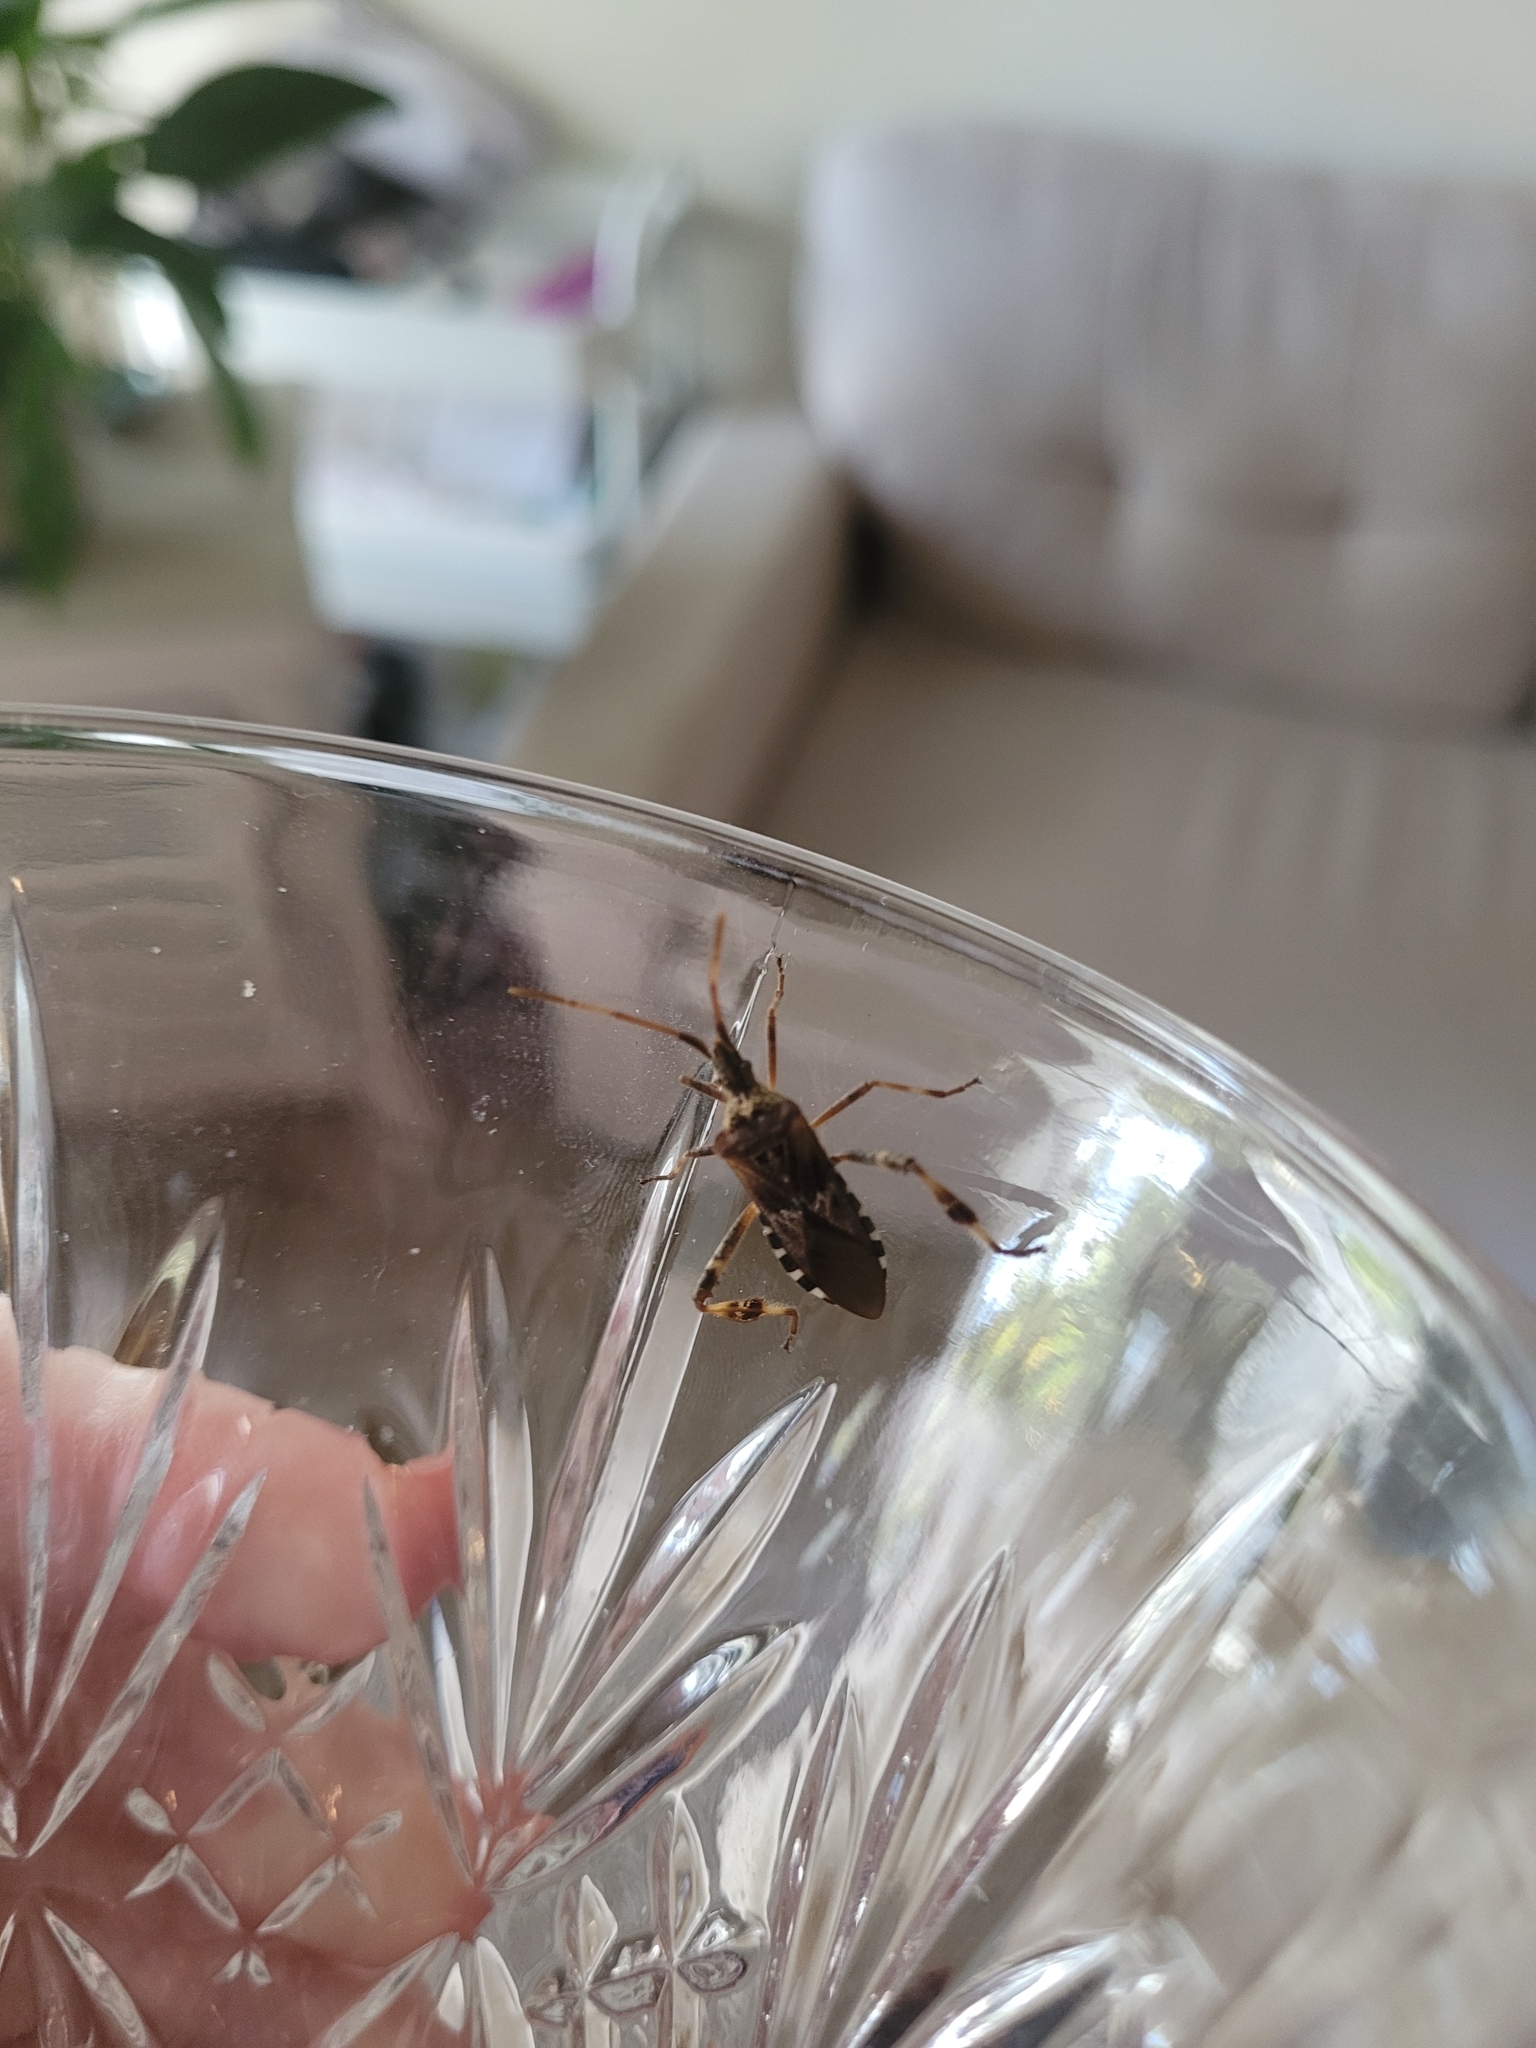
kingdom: Animalia
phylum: Arthropoda
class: Insecta
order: Hemiptera
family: Coreidae
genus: Leptoglossus
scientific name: Leptoglossus occidentalis
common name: Western conifer-seed bug
